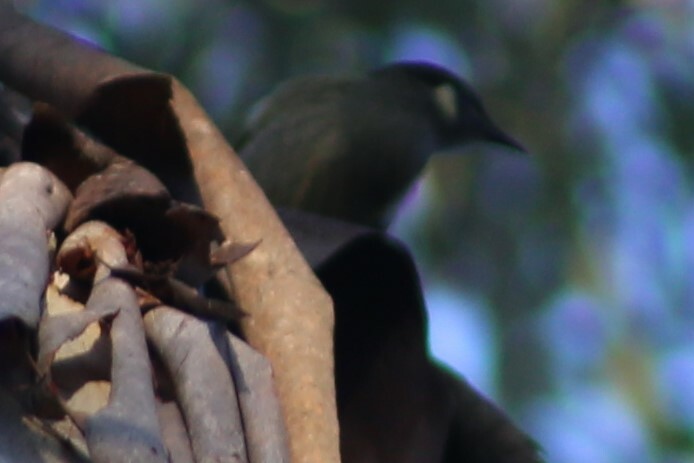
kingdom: Animalia
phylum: Chordata
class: Aves
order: Passeriformes
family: Meliphagidae
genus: Meliphaga
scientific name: Meliphaga lewinii
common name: Lewin's honeyeater
